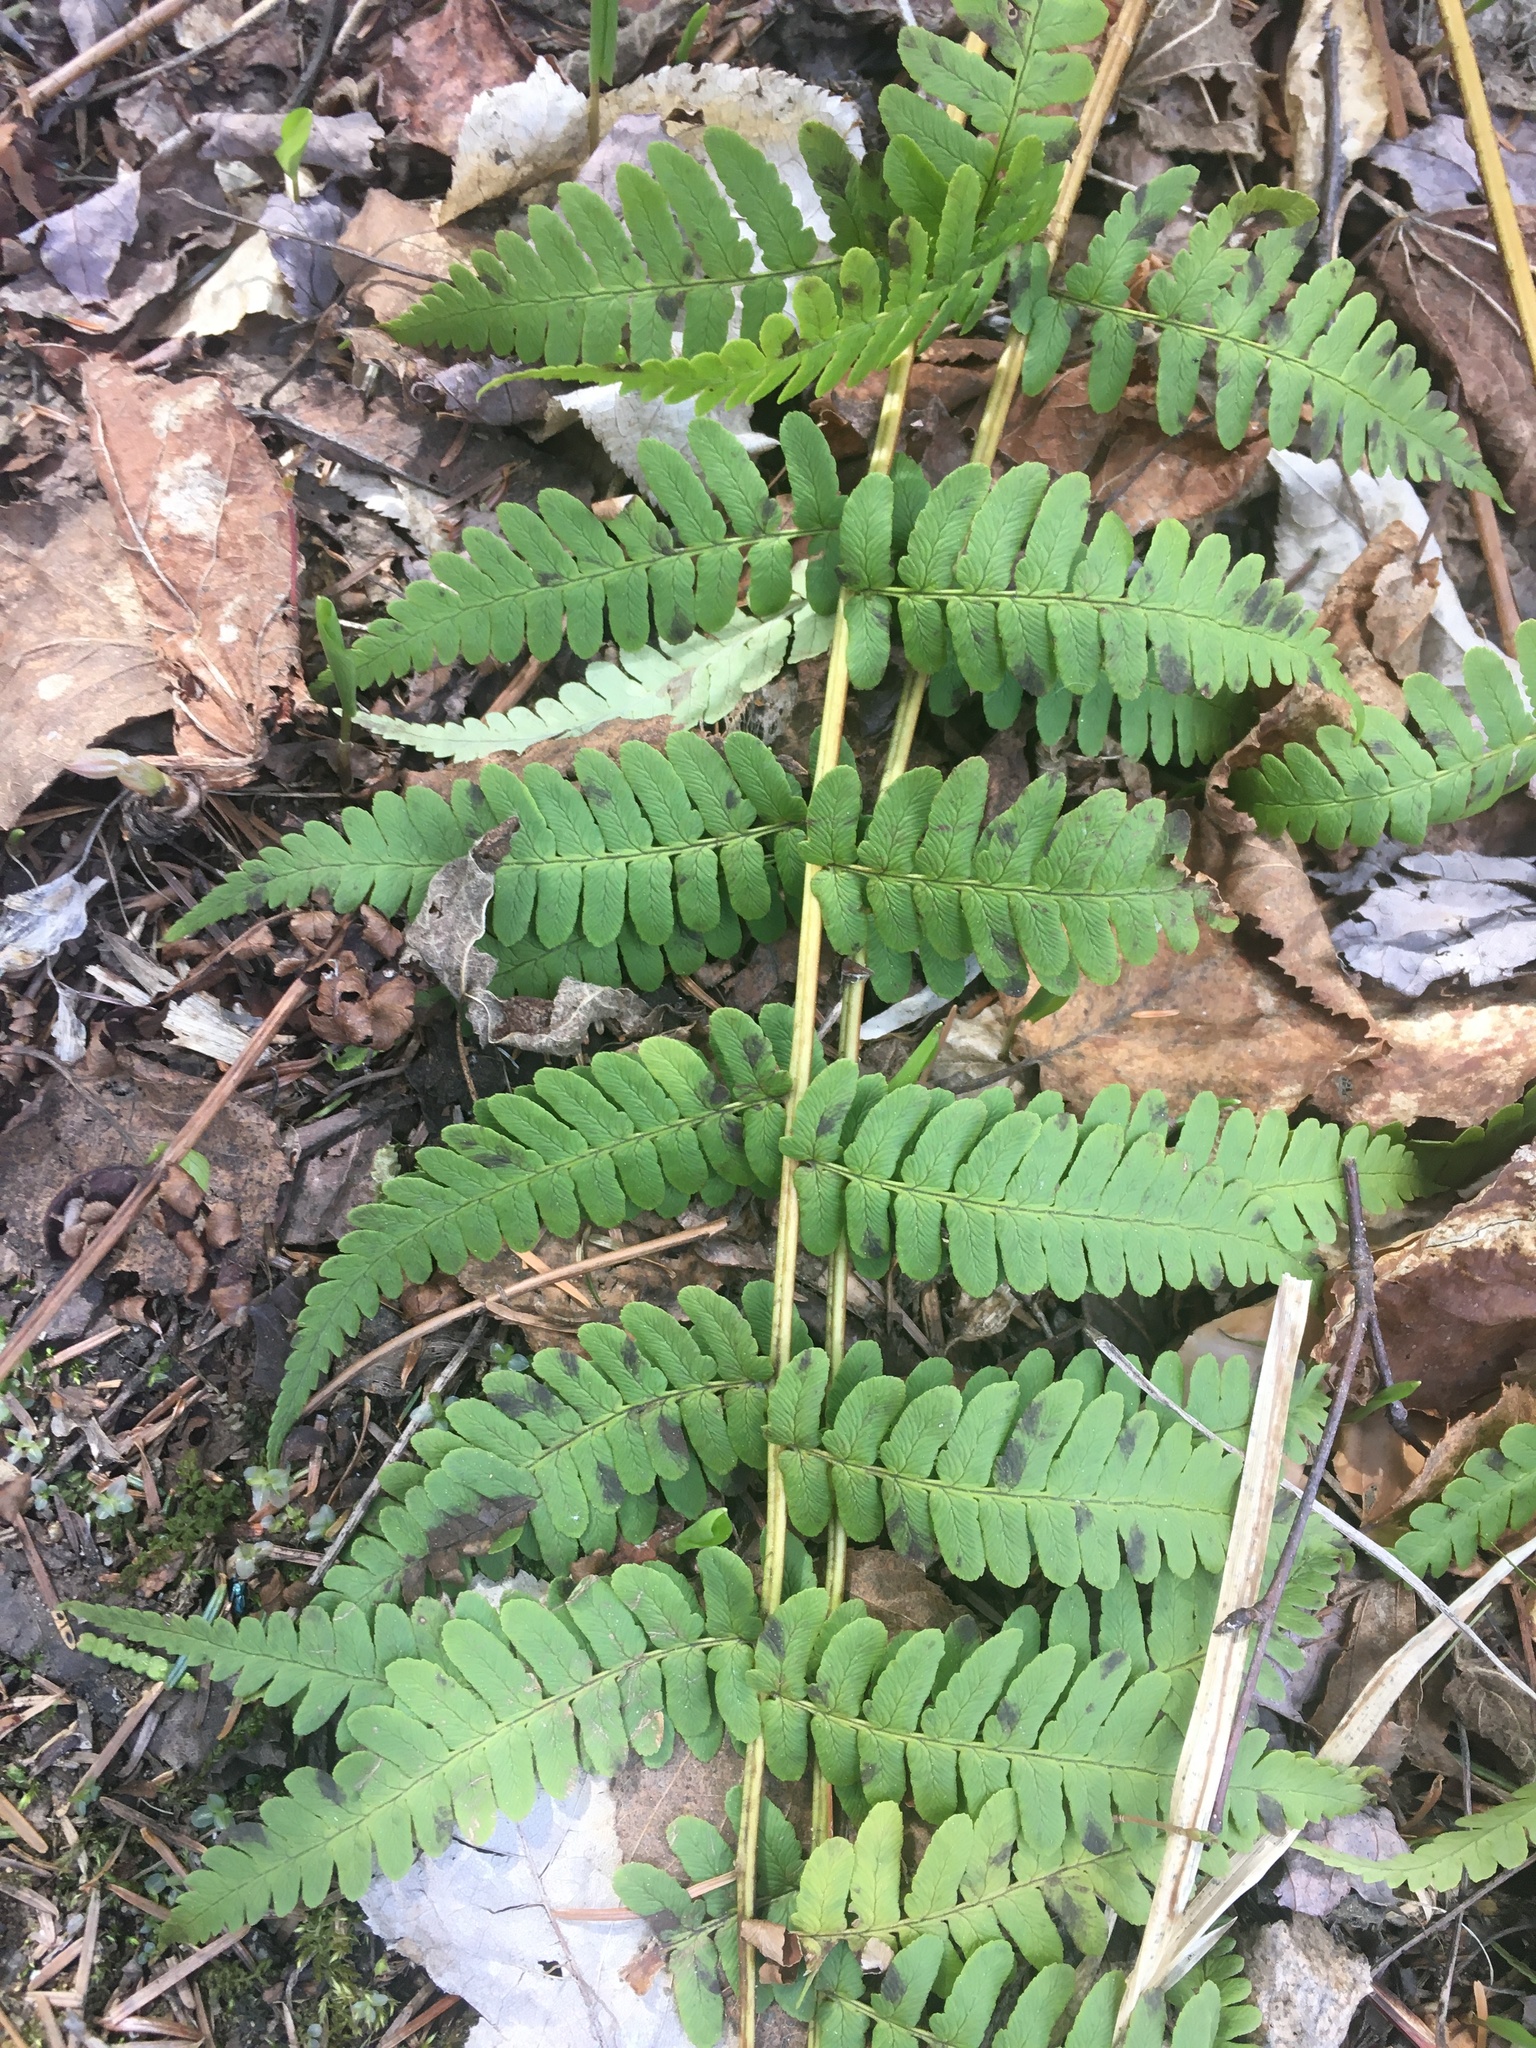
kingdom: Plantae
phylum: Tracheophyta
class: Polypodiopsida
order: Polypodiales
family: Dryopteridaceae
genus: Dryopteris
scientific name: Dryopteris marginalis
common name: Marginal wood fern
